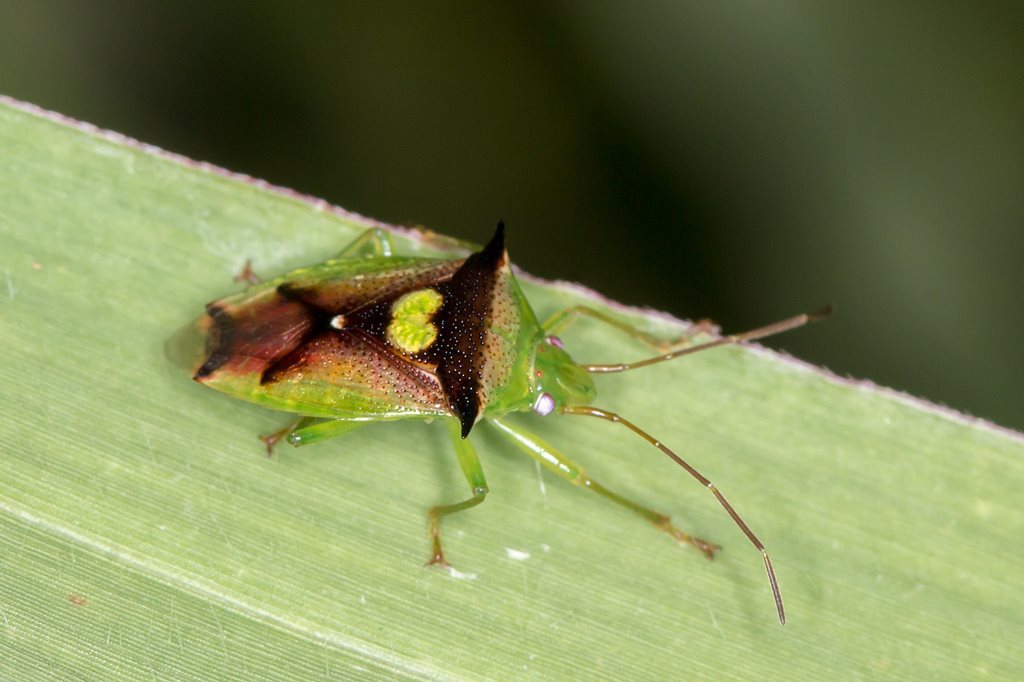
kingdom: Animalia
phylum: Arthropoda
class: Insecta
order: Hemiptera
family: Acanthosomatidae
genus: Sastragala
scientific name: Sastragala versicolor
